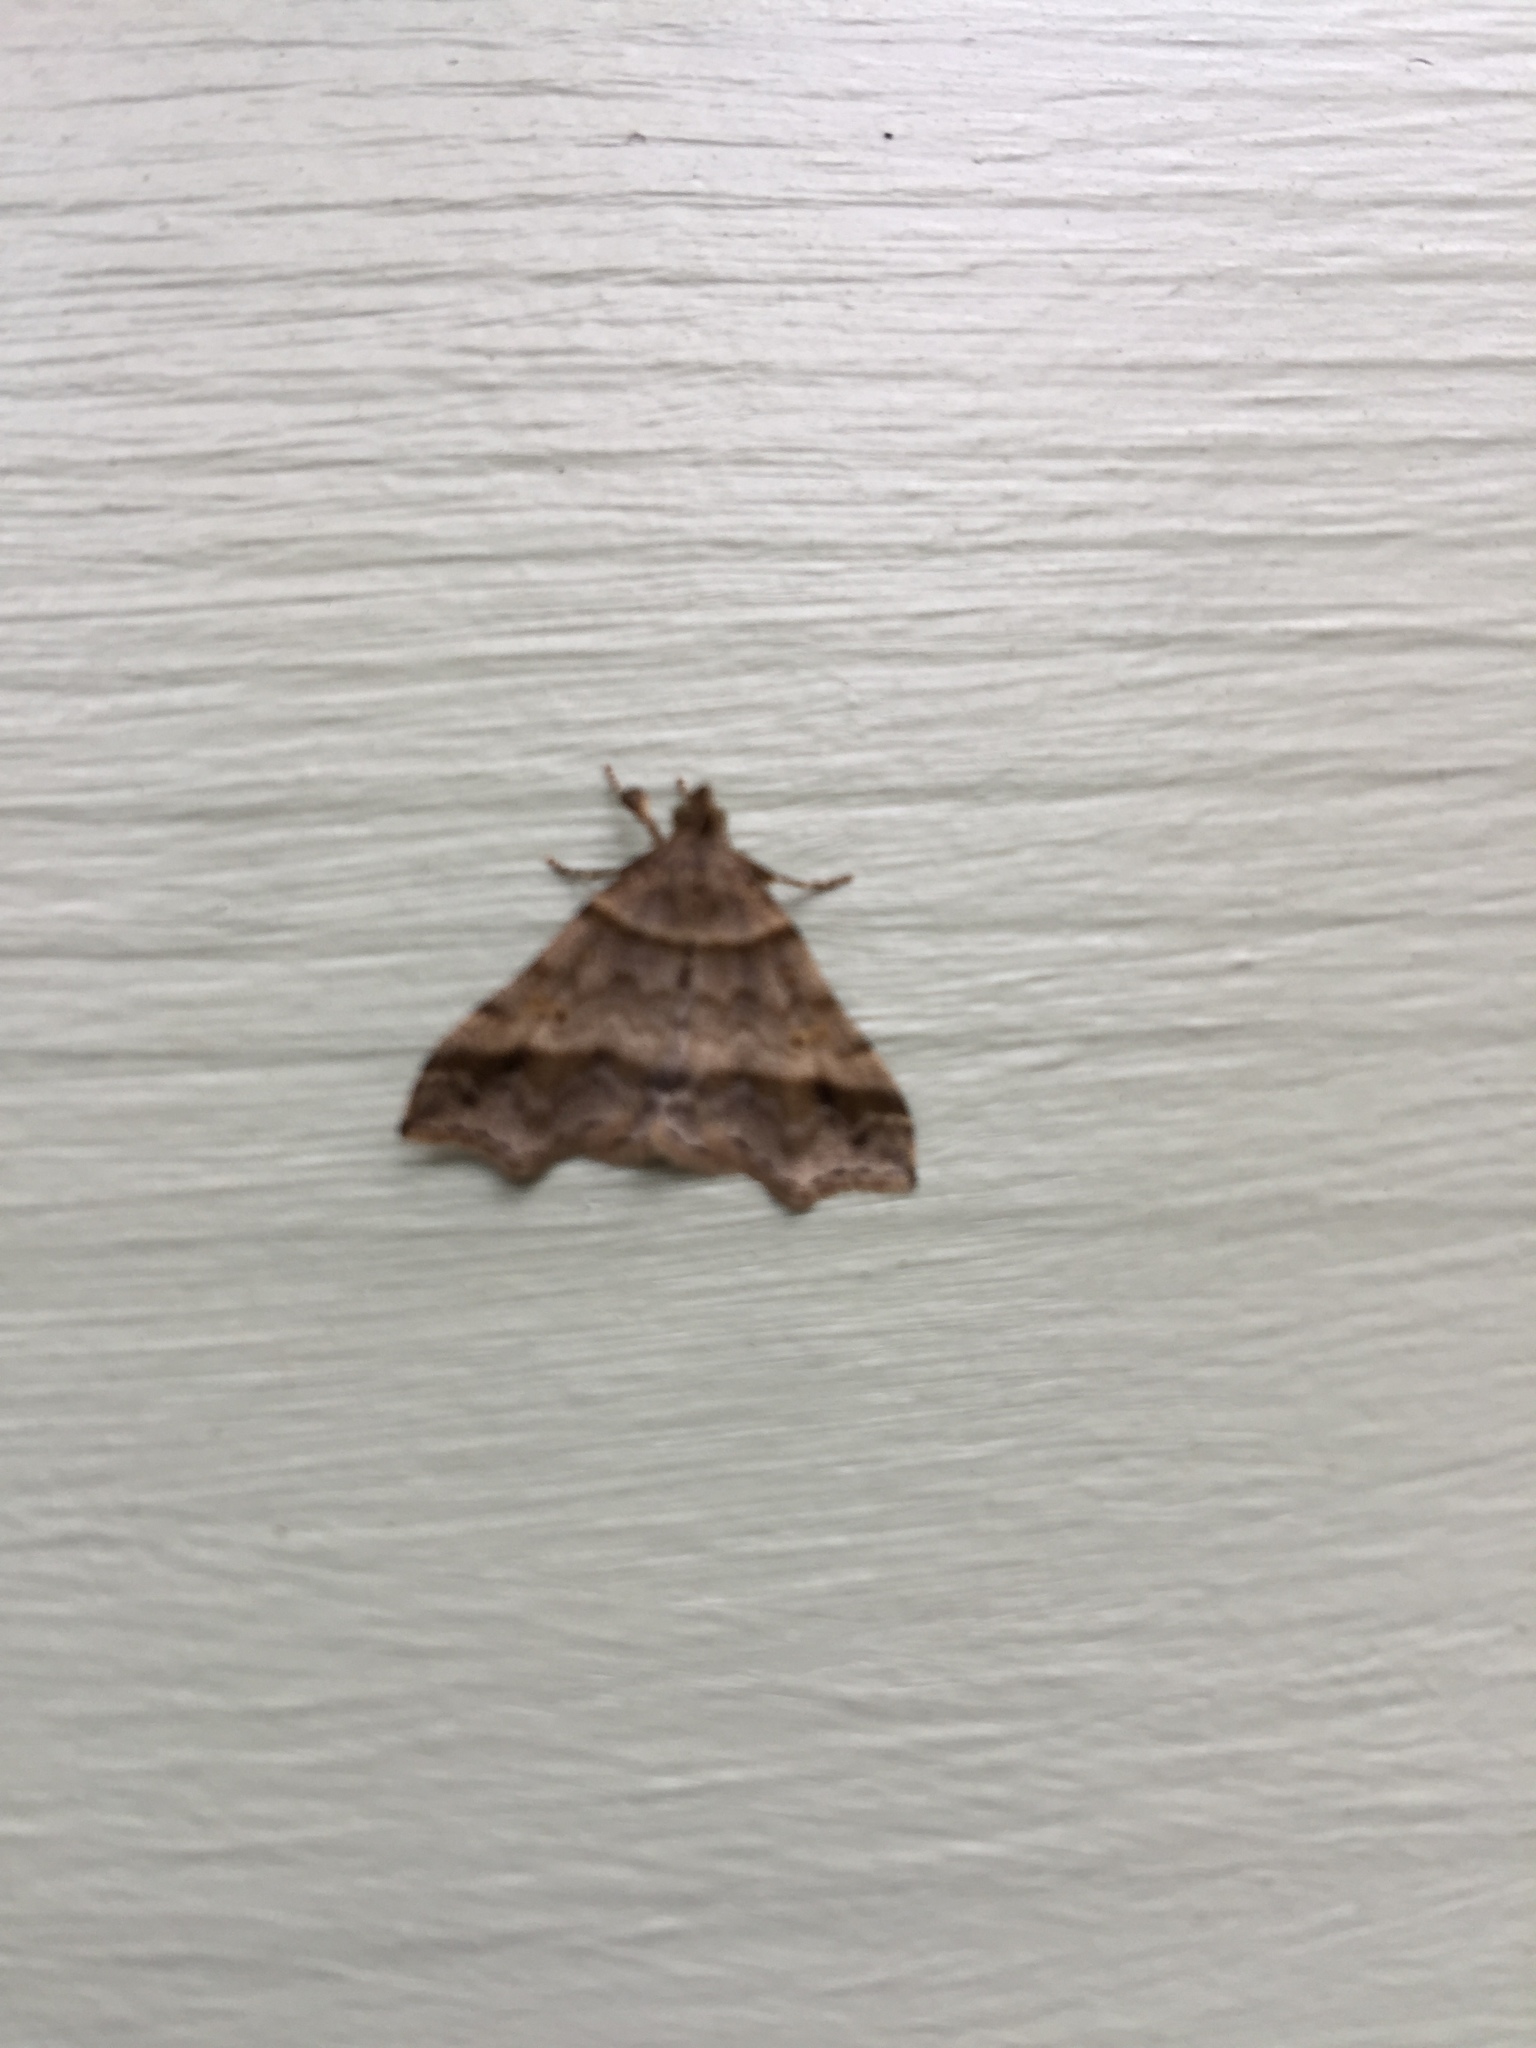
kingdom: Animalia
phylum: Arthropoda
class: Insecta
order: Lepidoptera
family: Erebidae
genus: Phaeolita
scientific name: Phaeolita pyramusalis
